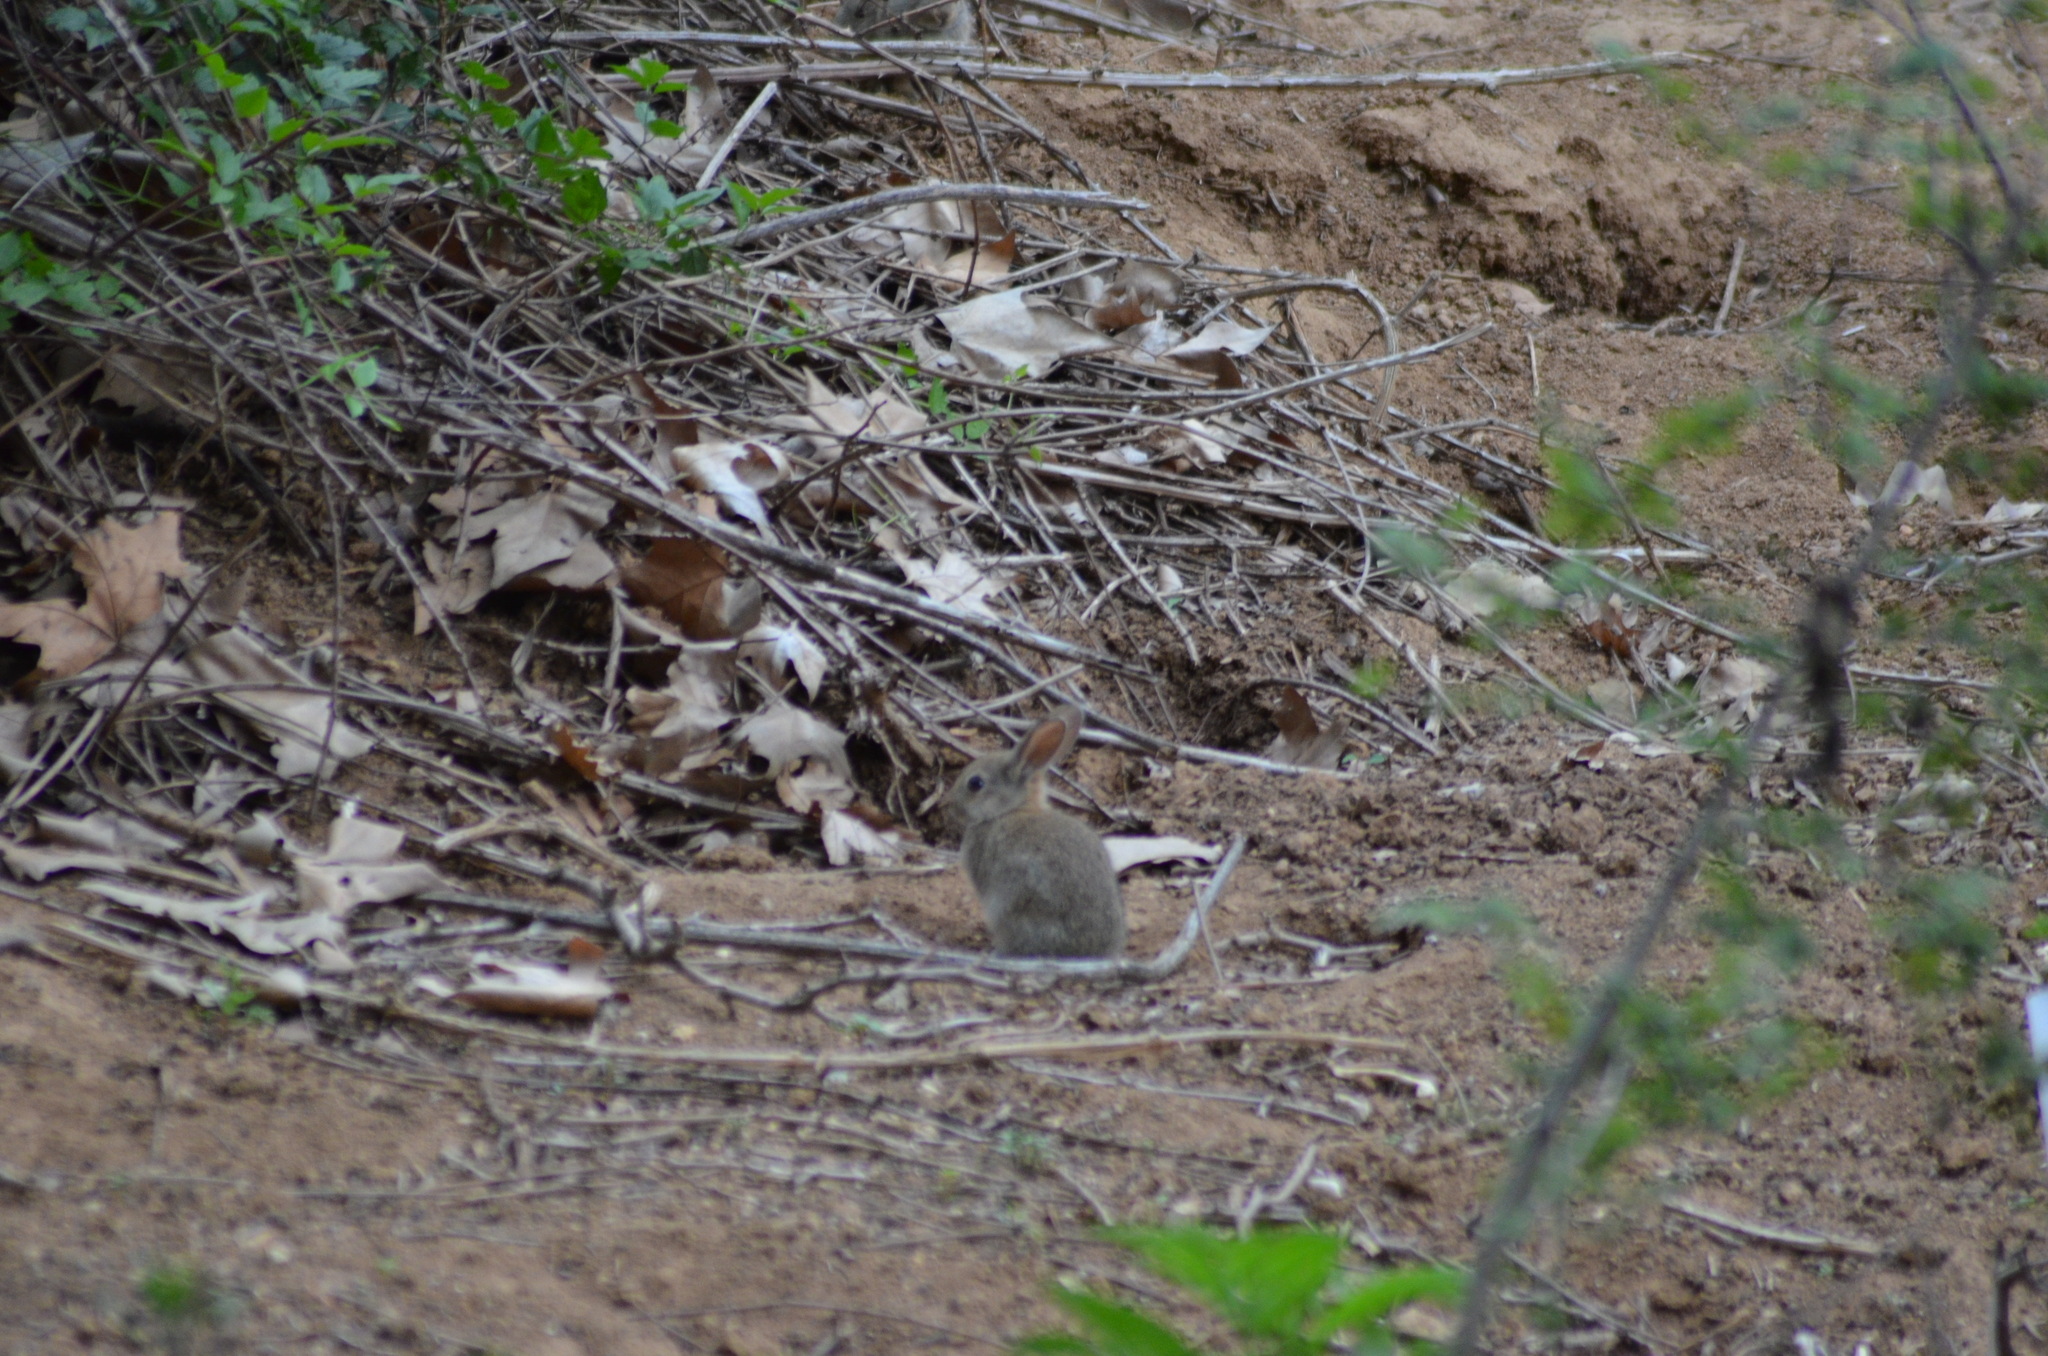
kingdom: Animalia
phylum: Chordata
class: Mammalia
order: Lagomorpha
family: Leporidae
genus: Oryctolagus
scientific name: Oryctolagus cuniculus
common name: European rabbit
